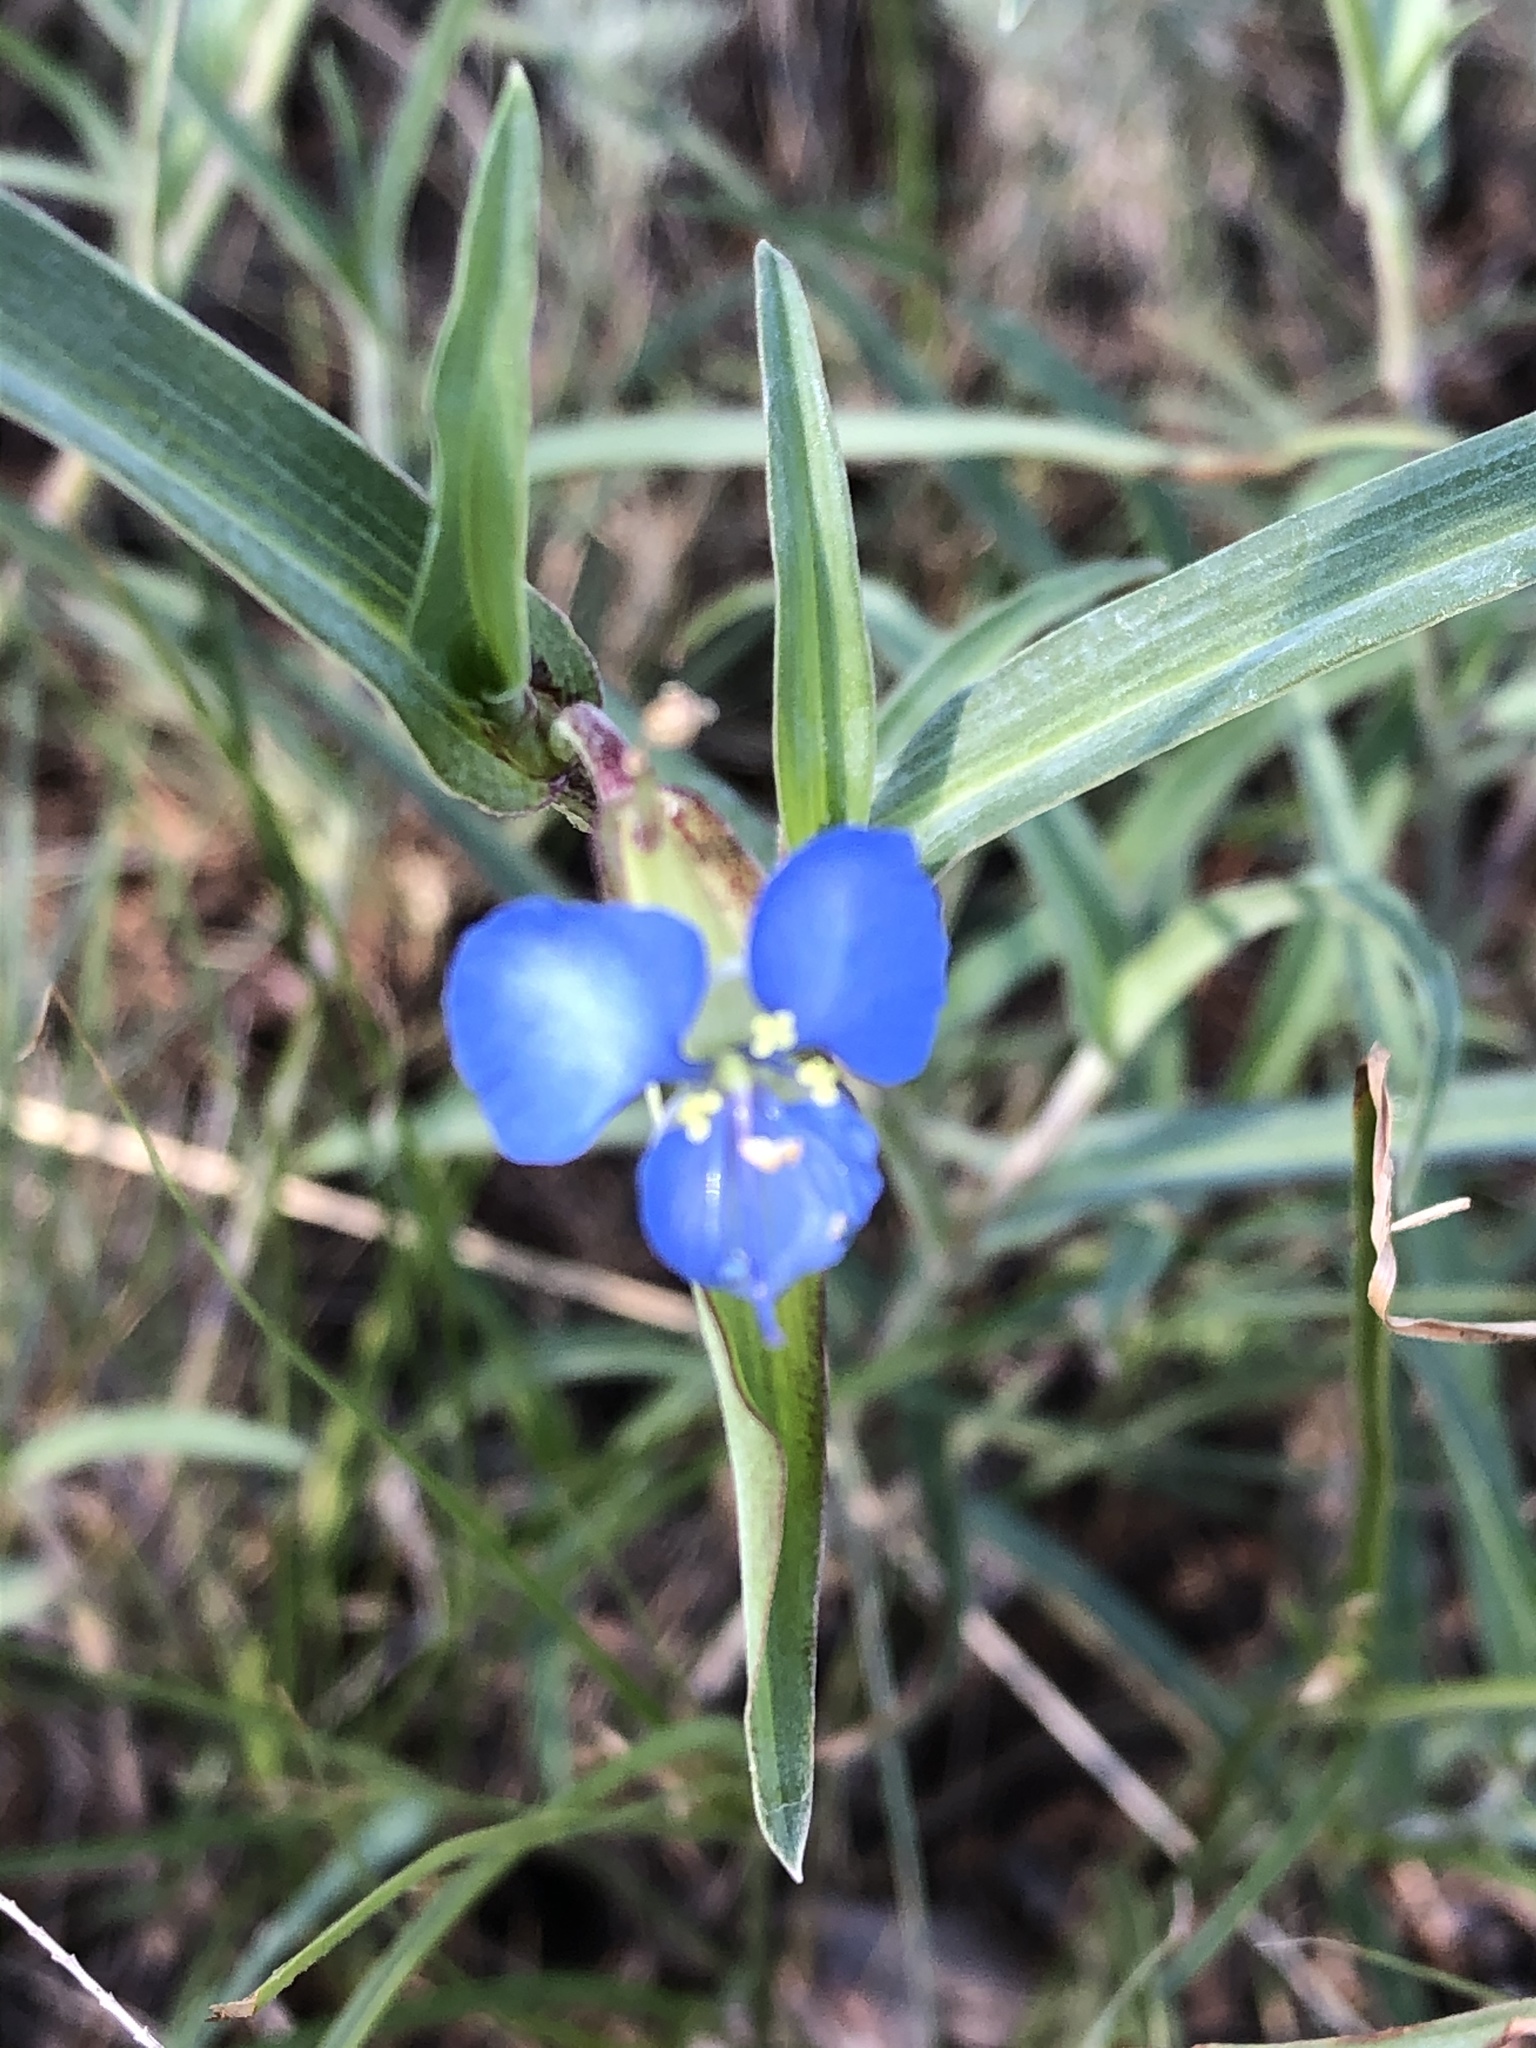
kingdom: Plantae
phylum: Tracheophyta
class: Liliopsida
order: Commelinales
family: Commelinaceae
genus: Commelina
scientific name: Commelina dianthifolia
